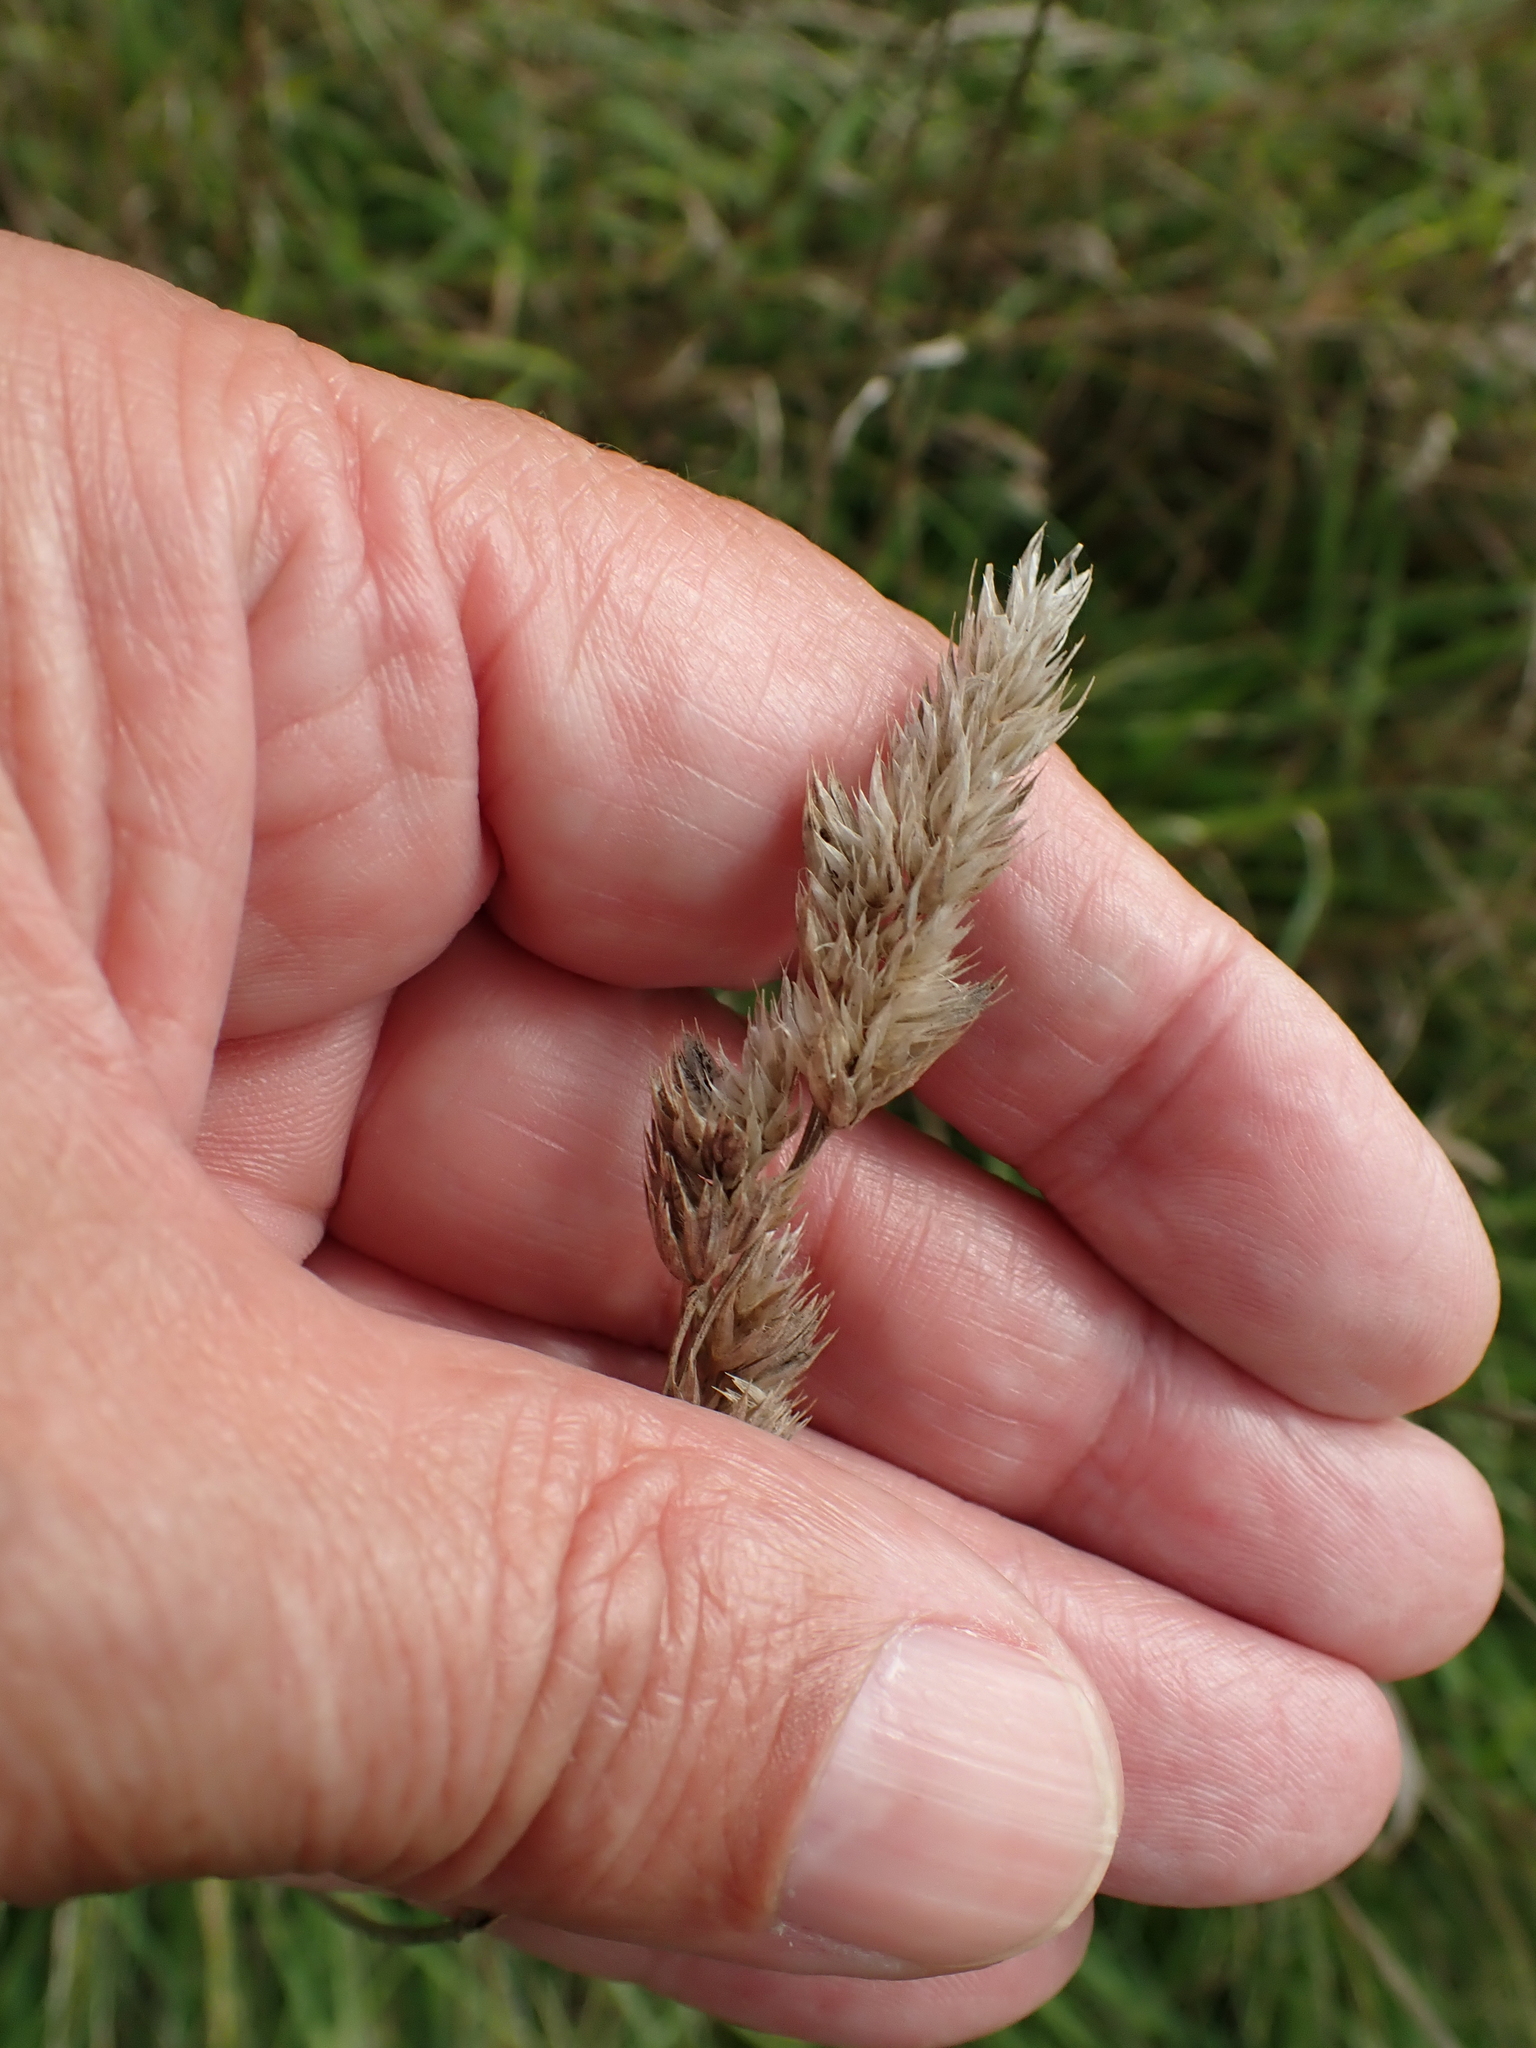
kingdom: Plantae
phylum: Tracheophyta
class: Liliopsida
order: Poales
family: Poaceae
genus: Dactylis
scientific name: Dactylis glomerata
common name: Orchardgrass
